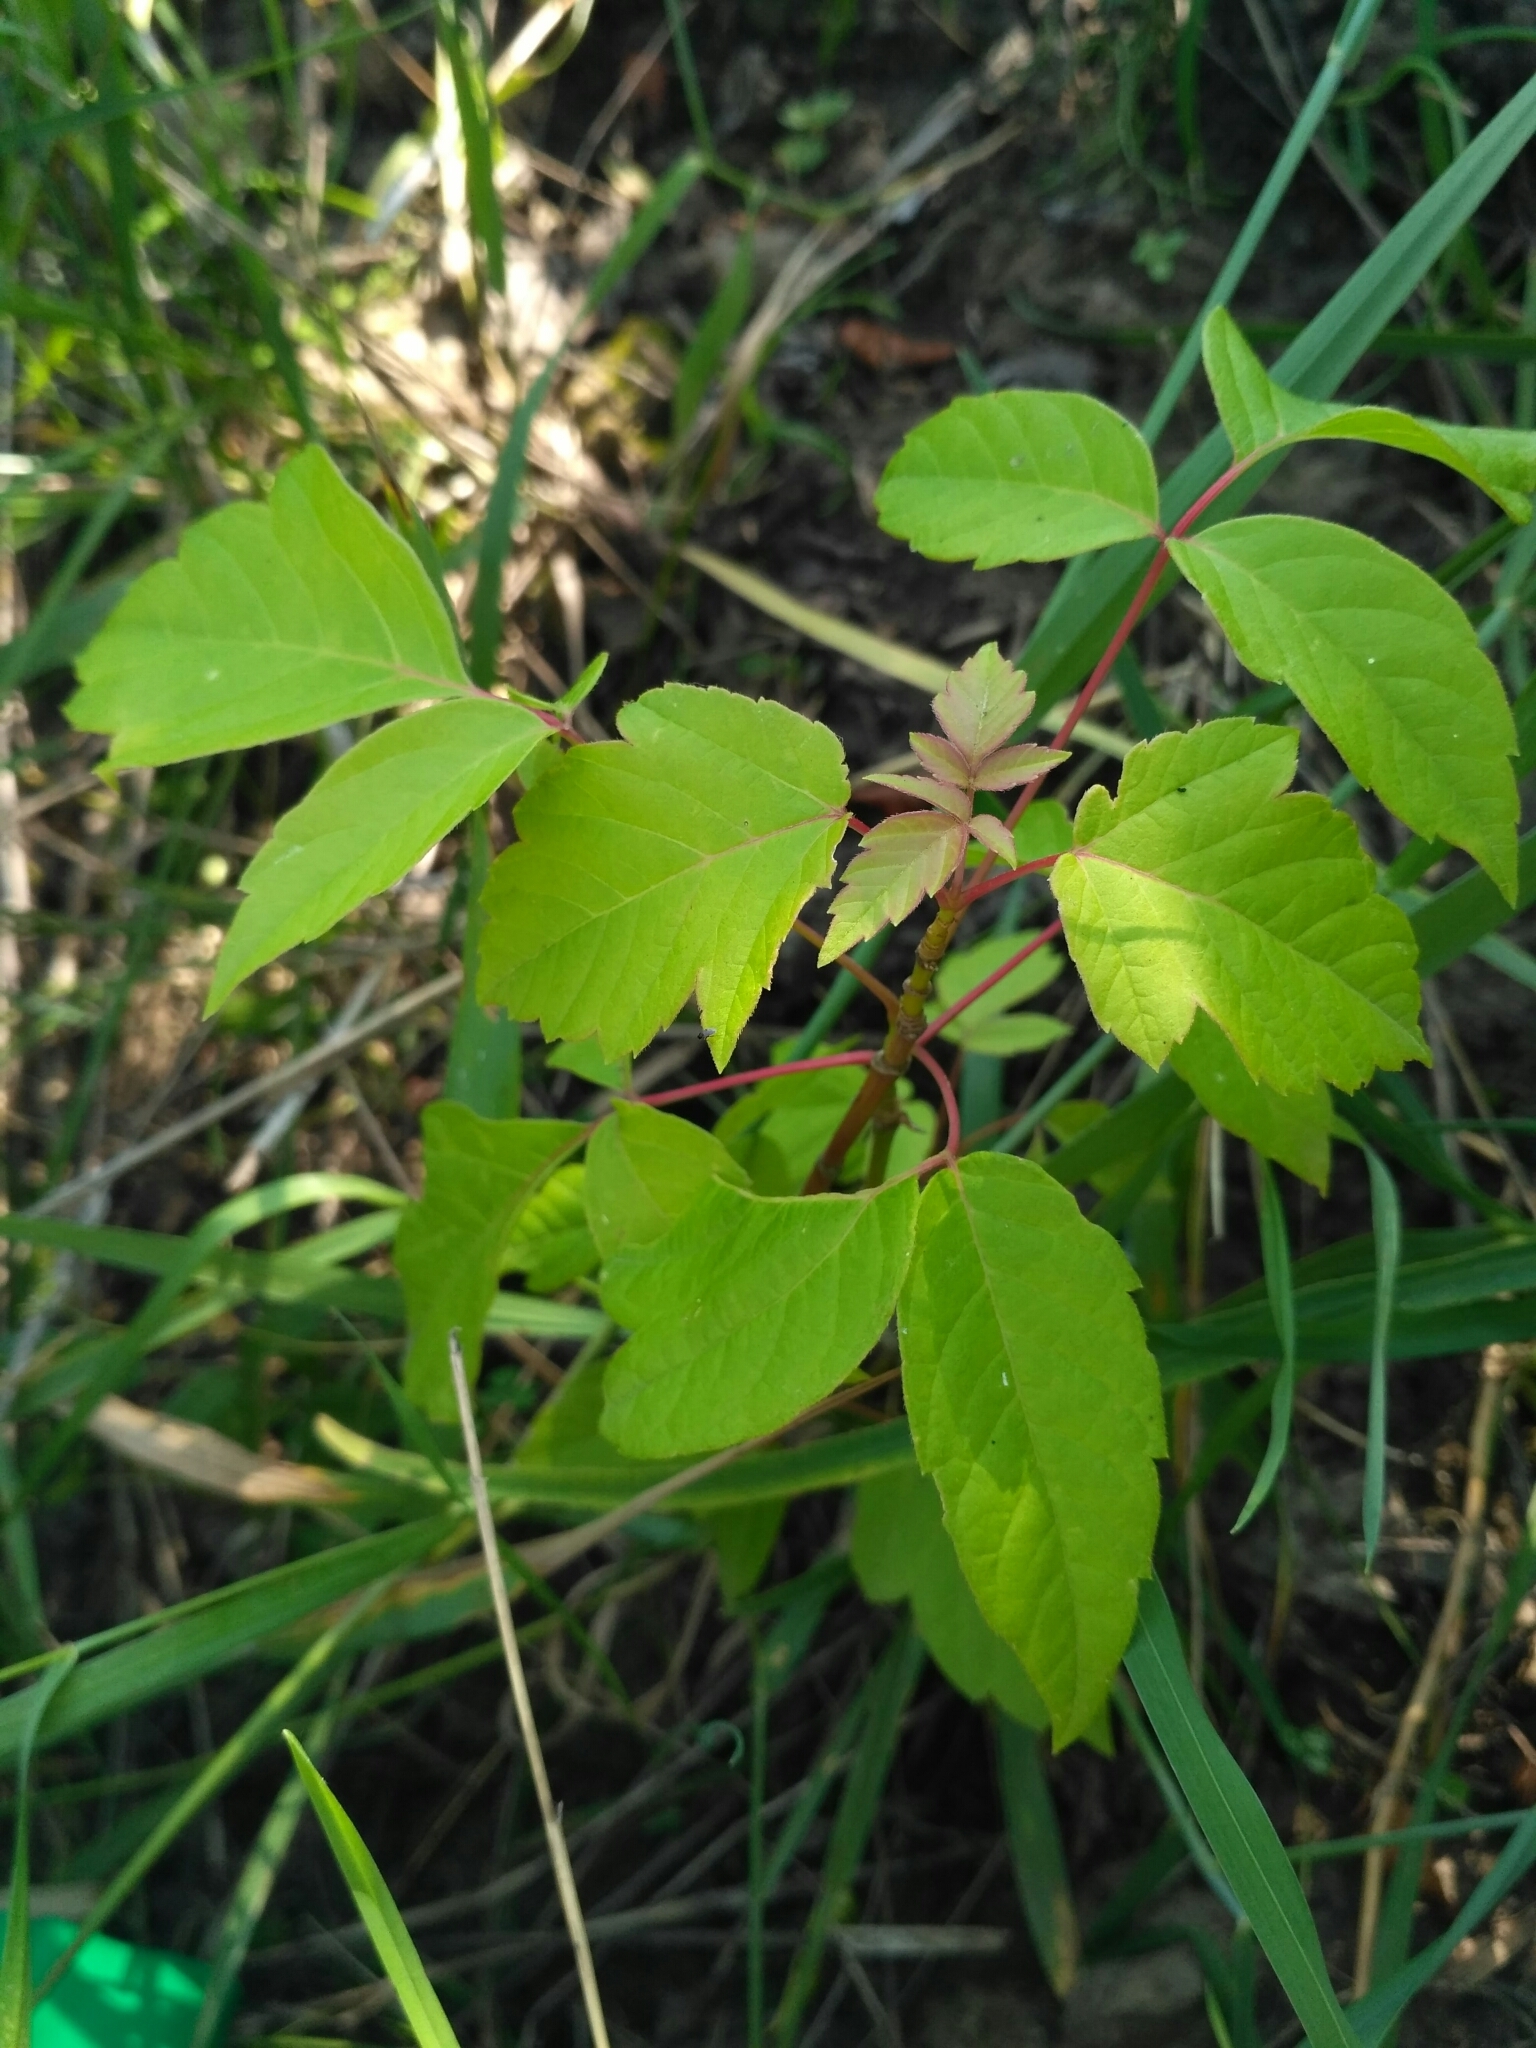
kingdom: Plantae
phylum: Tracheophyta
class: Magnoliopsida
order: Sapindales
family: Sapindaceae
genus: Acer
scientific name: Acer negundo
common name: Ashleaf maple
